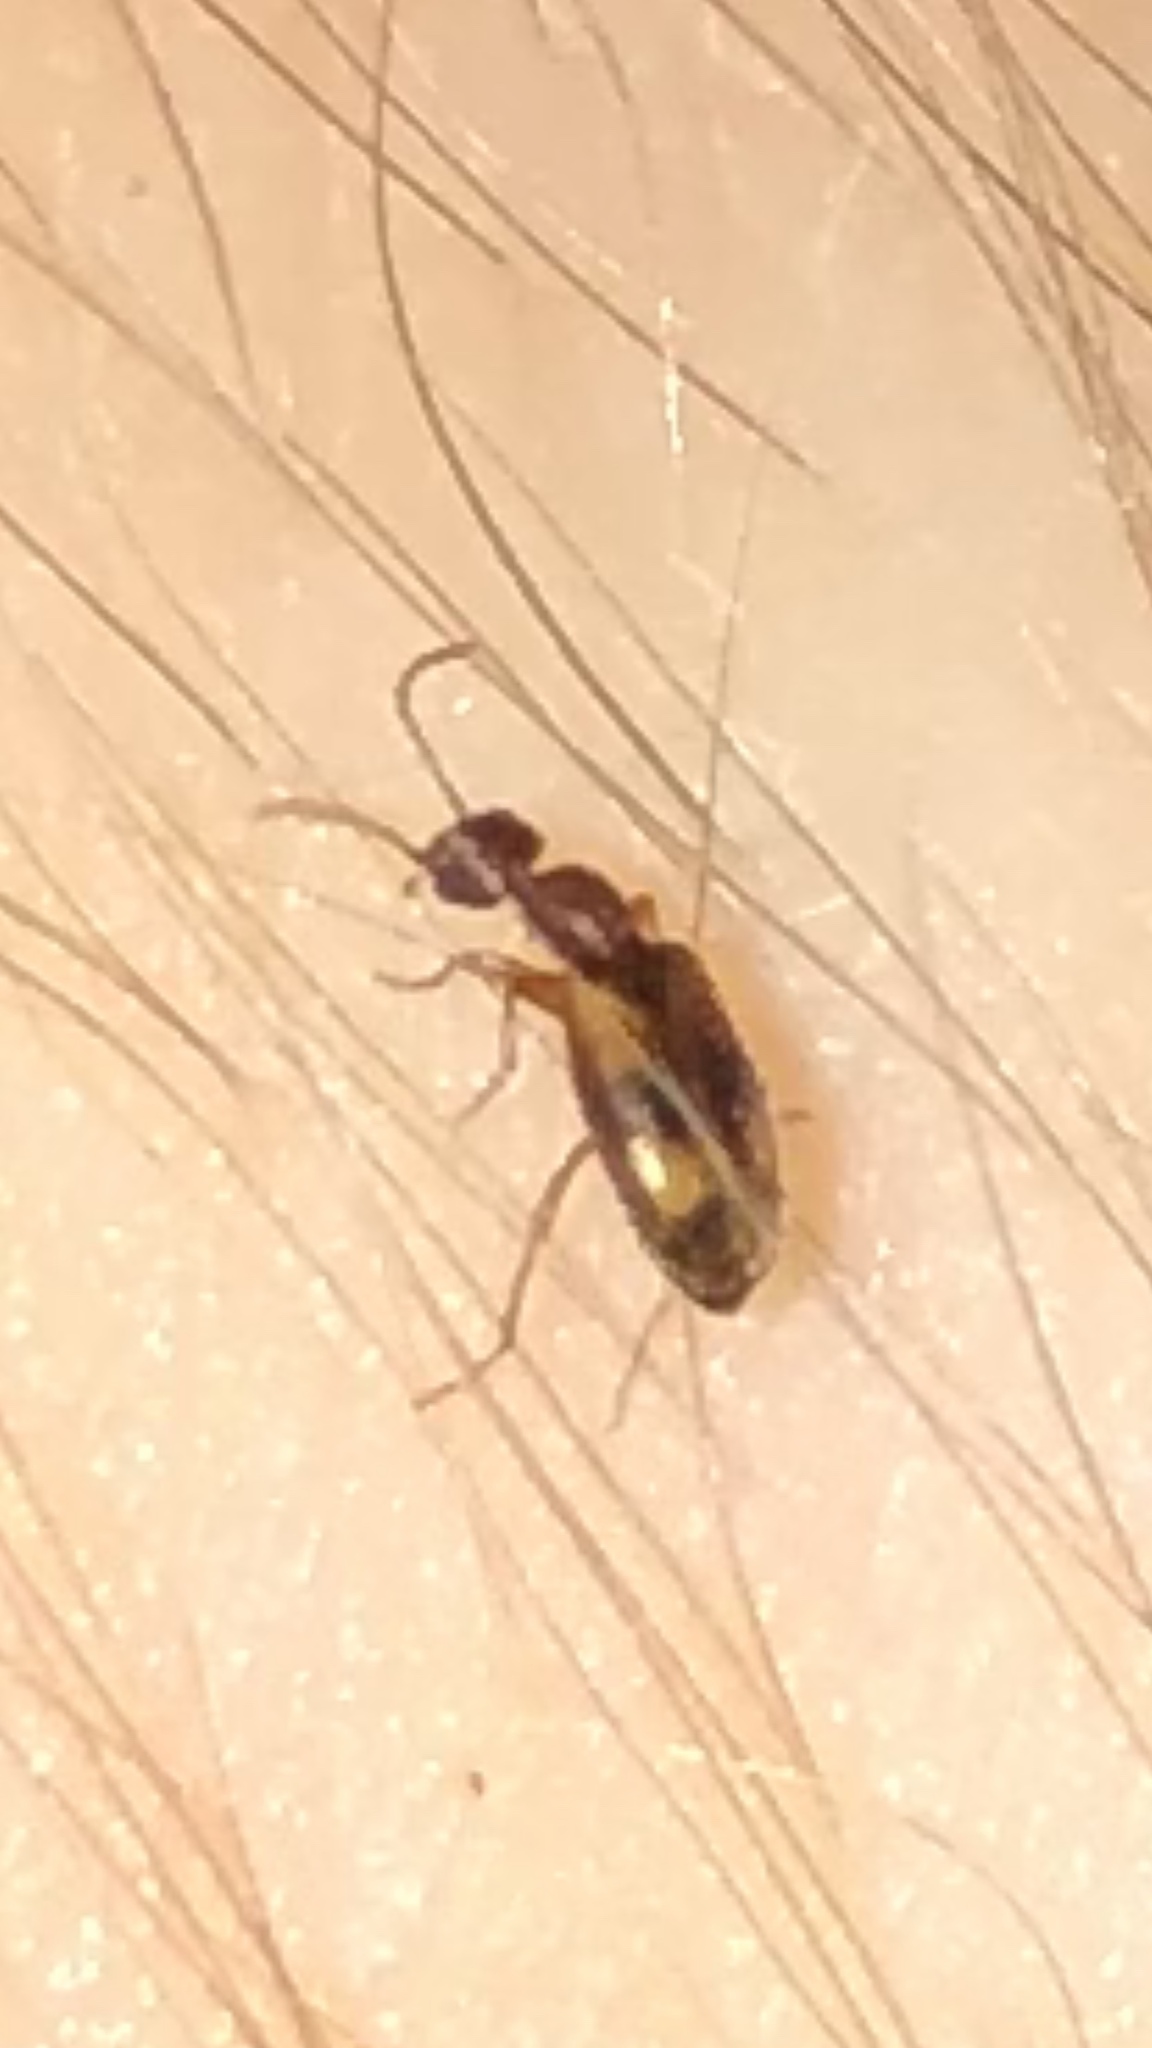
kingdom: Animalia
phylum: Arthropoda
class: Insecta
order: Coleoptera
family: Anthicidae
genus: Anthicus
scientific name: Anthicus cervinus
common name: Cloudy flower beetle
